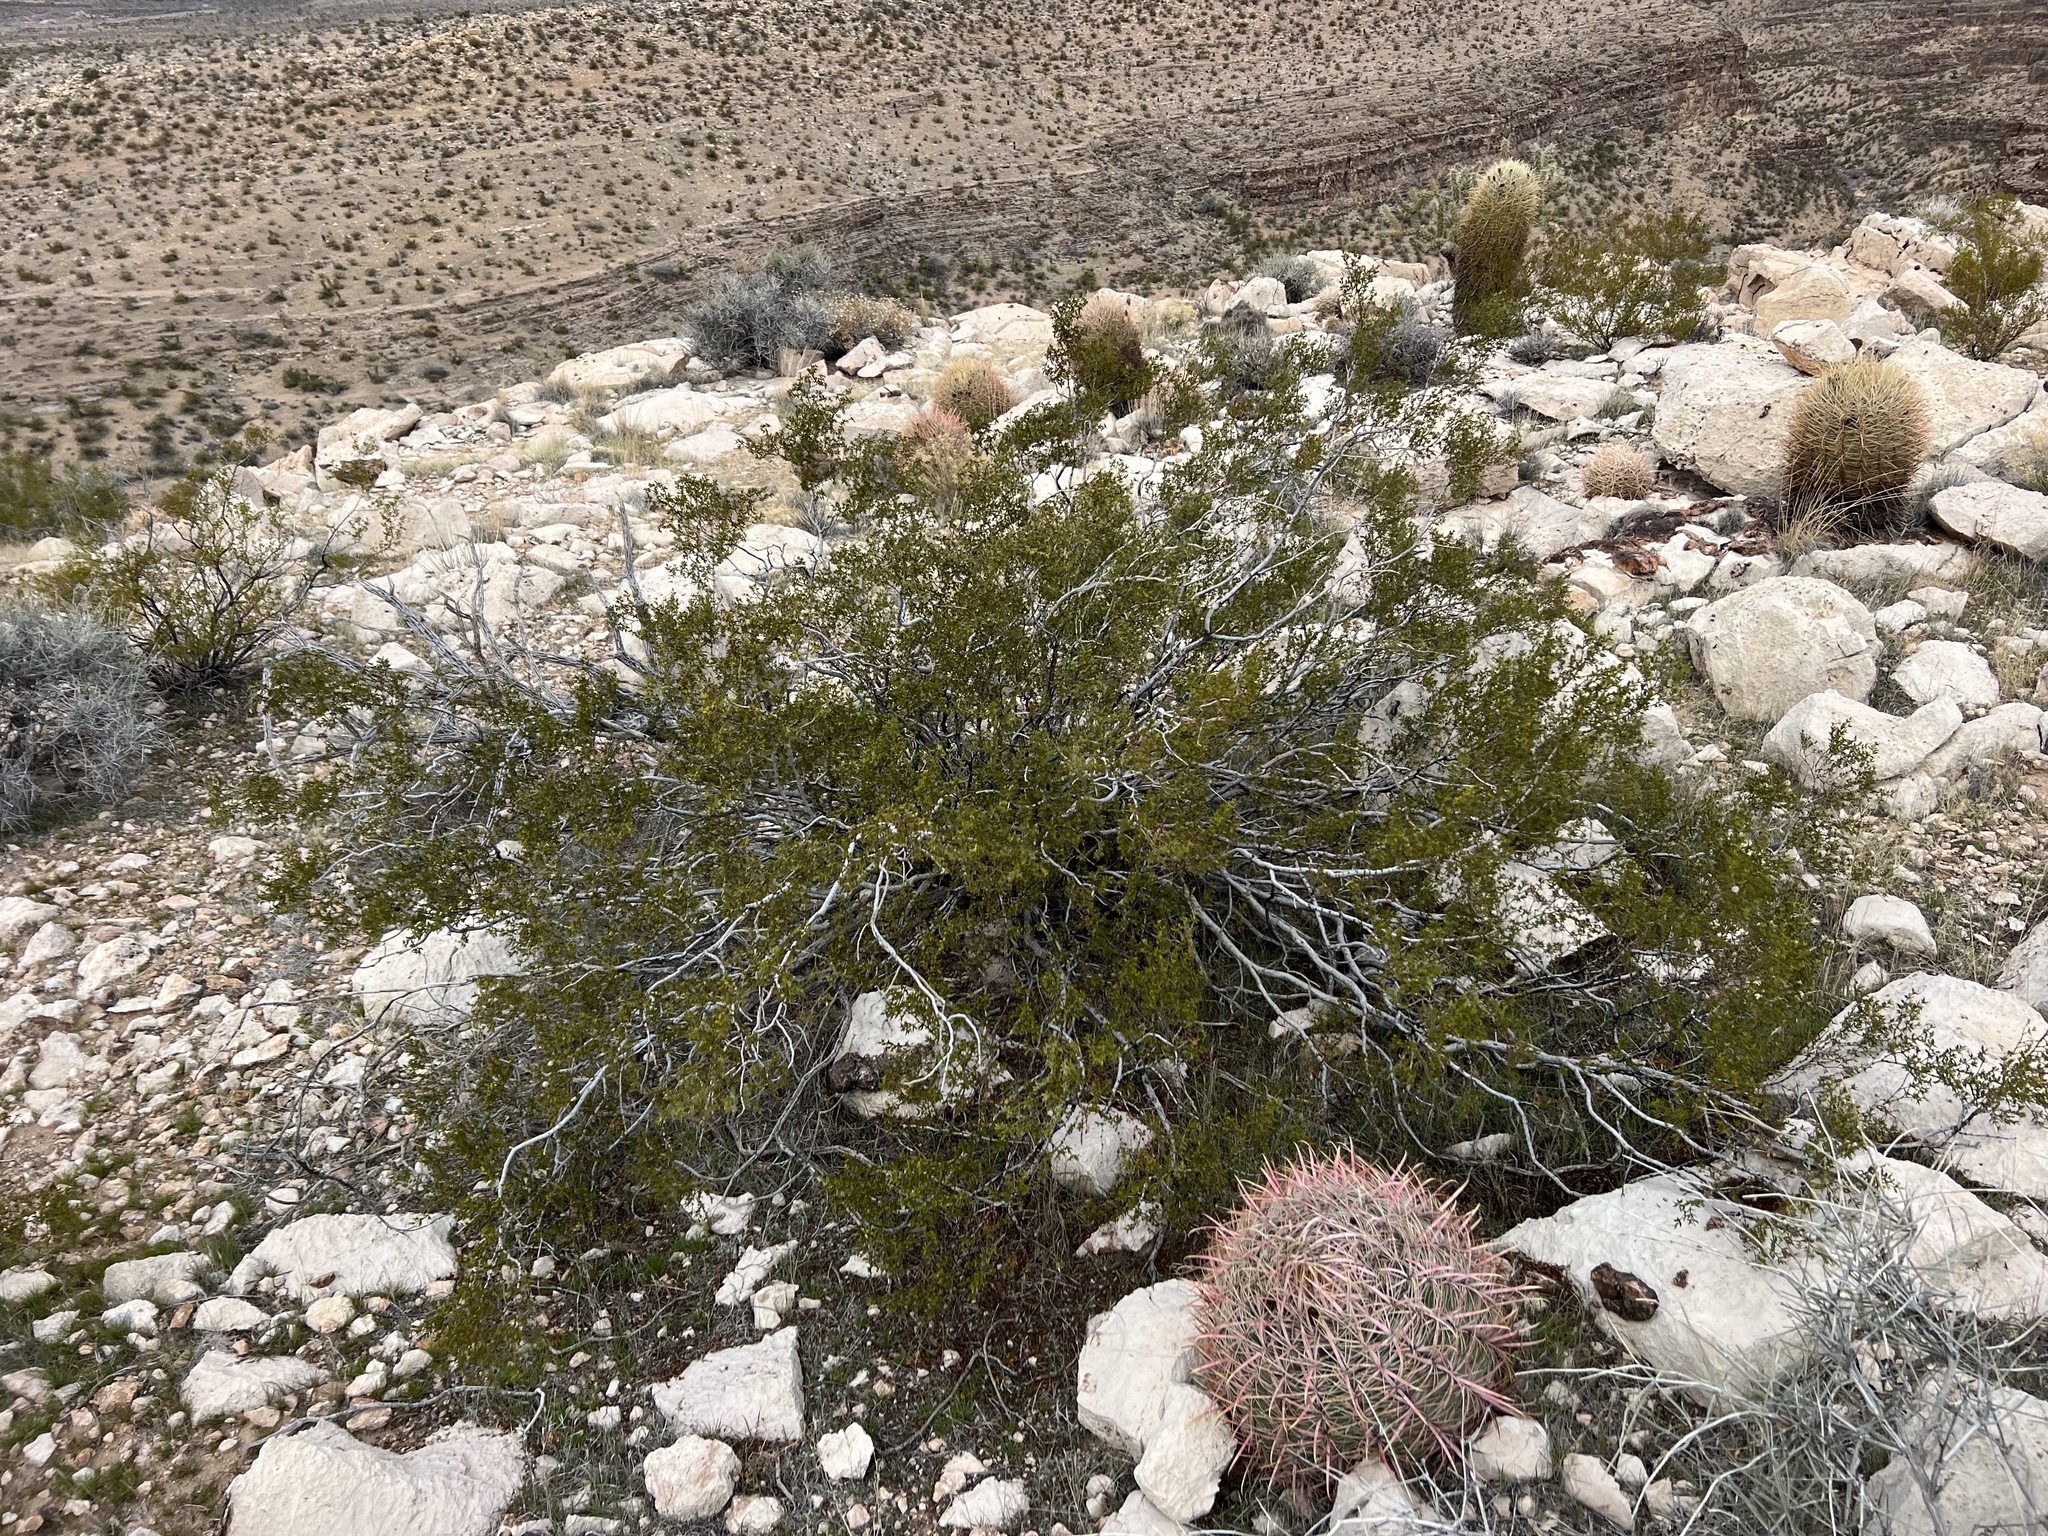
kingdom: Plantae
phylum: Tracheophyta
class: Magnoliopsida
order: Zygophyllales
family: Zygophyllaceae
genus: Larrea
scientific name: Larrea tridentata
